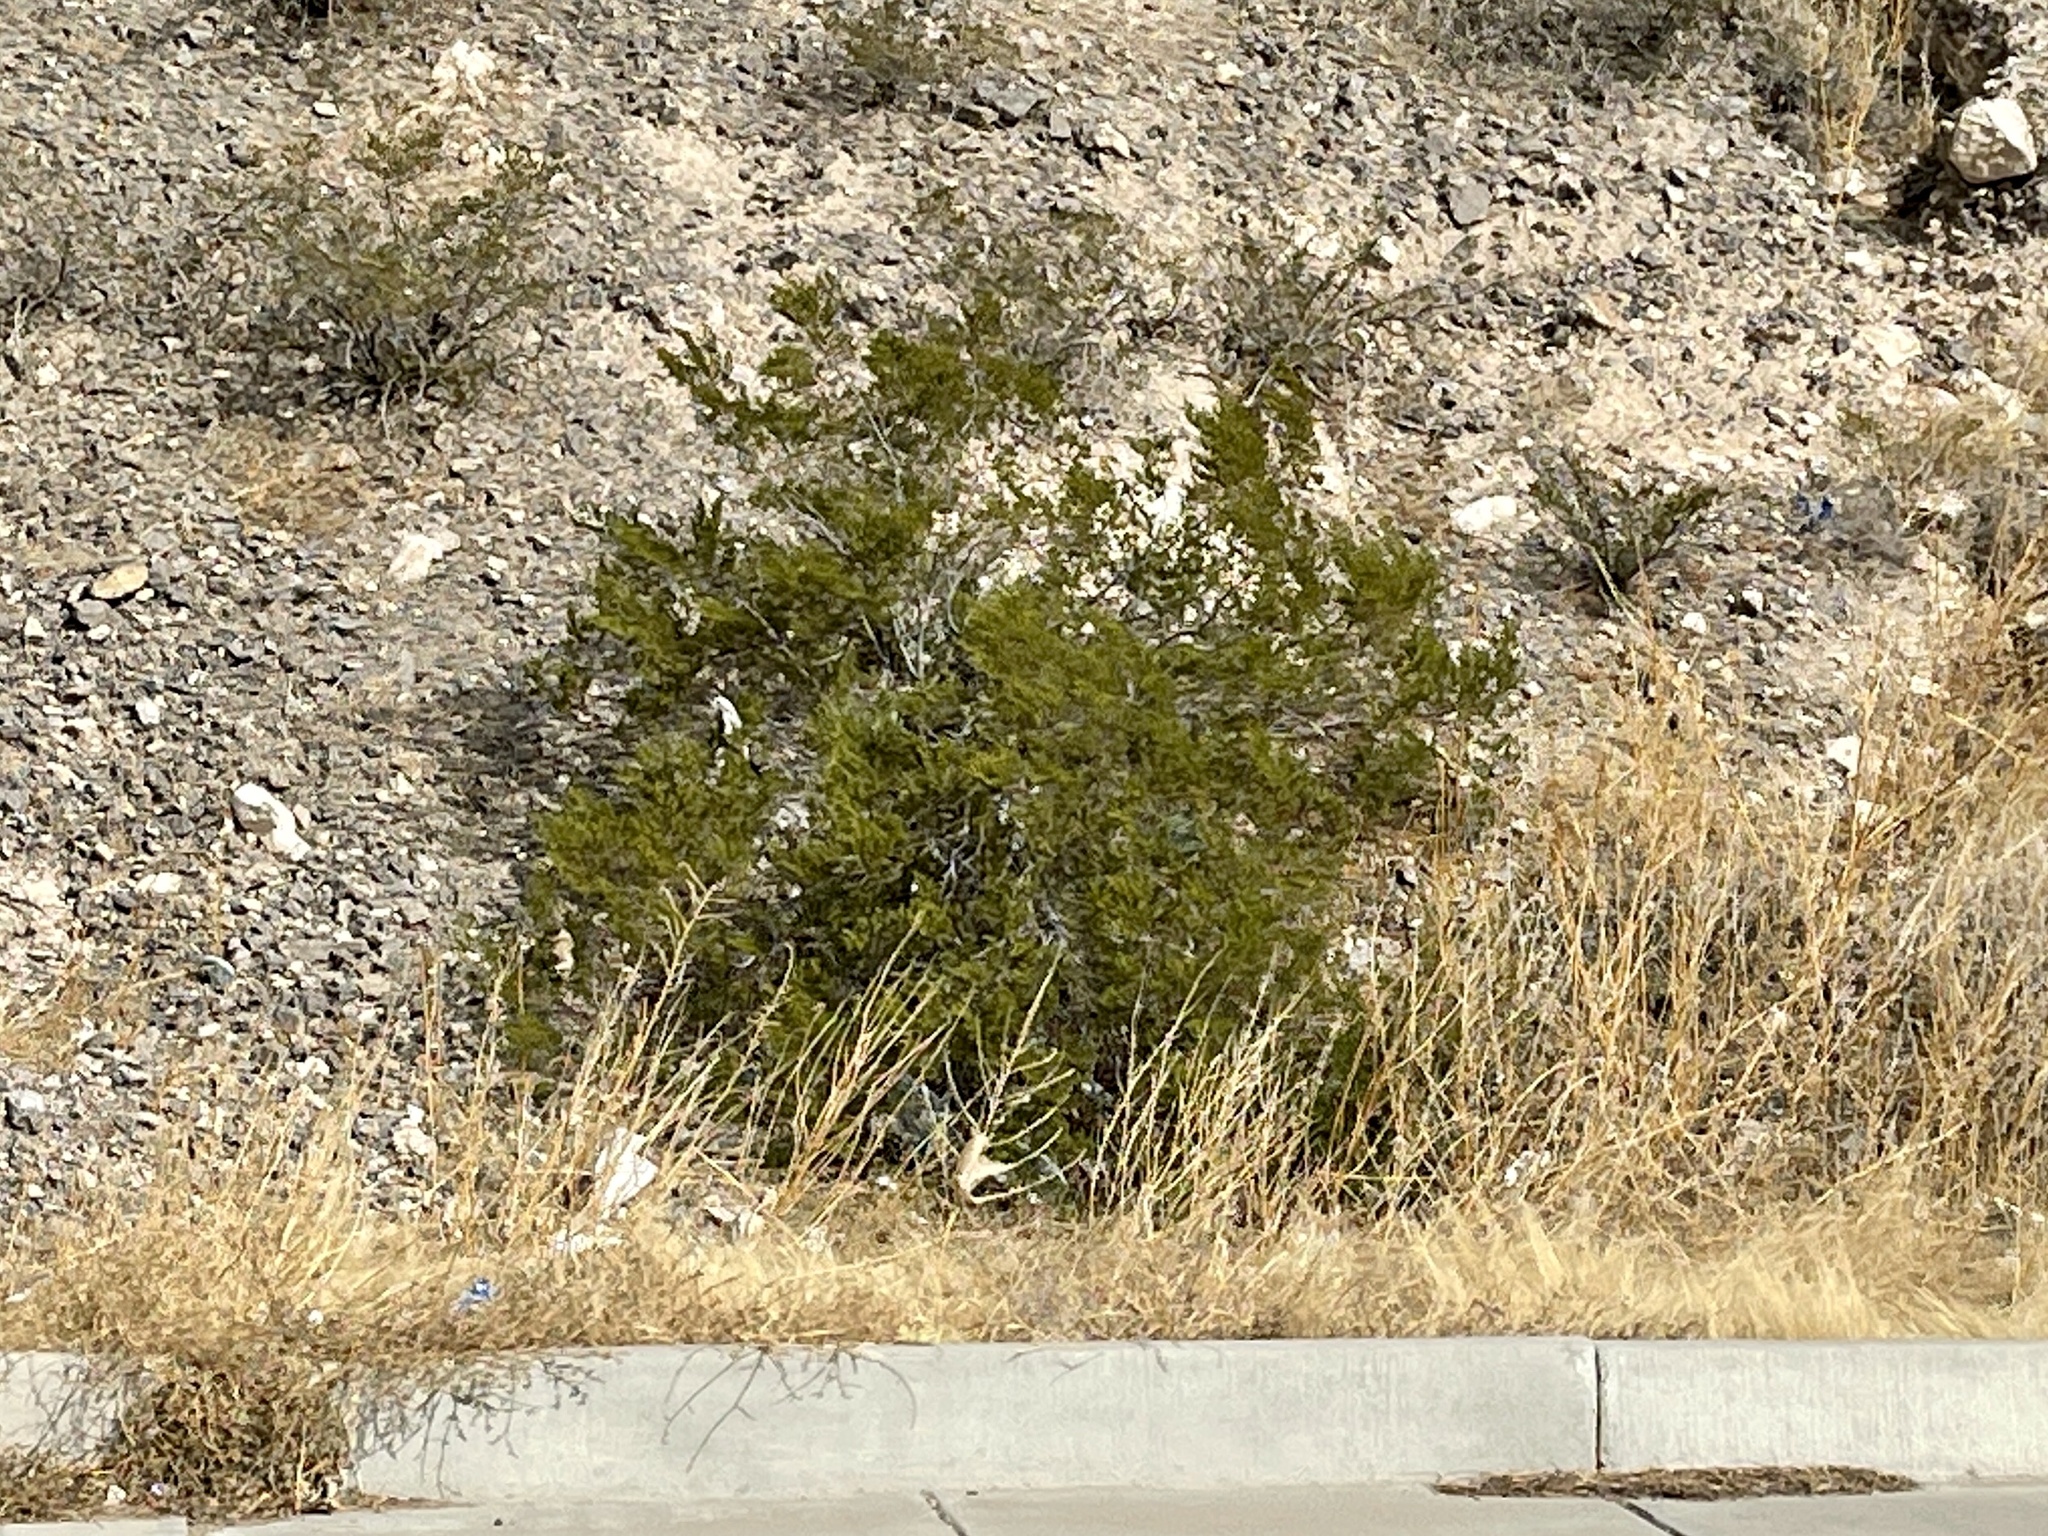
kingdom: Plantae
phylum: Tracheophyta
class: Magnoliopsida
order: Zygophyllales
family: Zygophyllaceae
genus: Larrea
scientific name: Larrea tridentata
